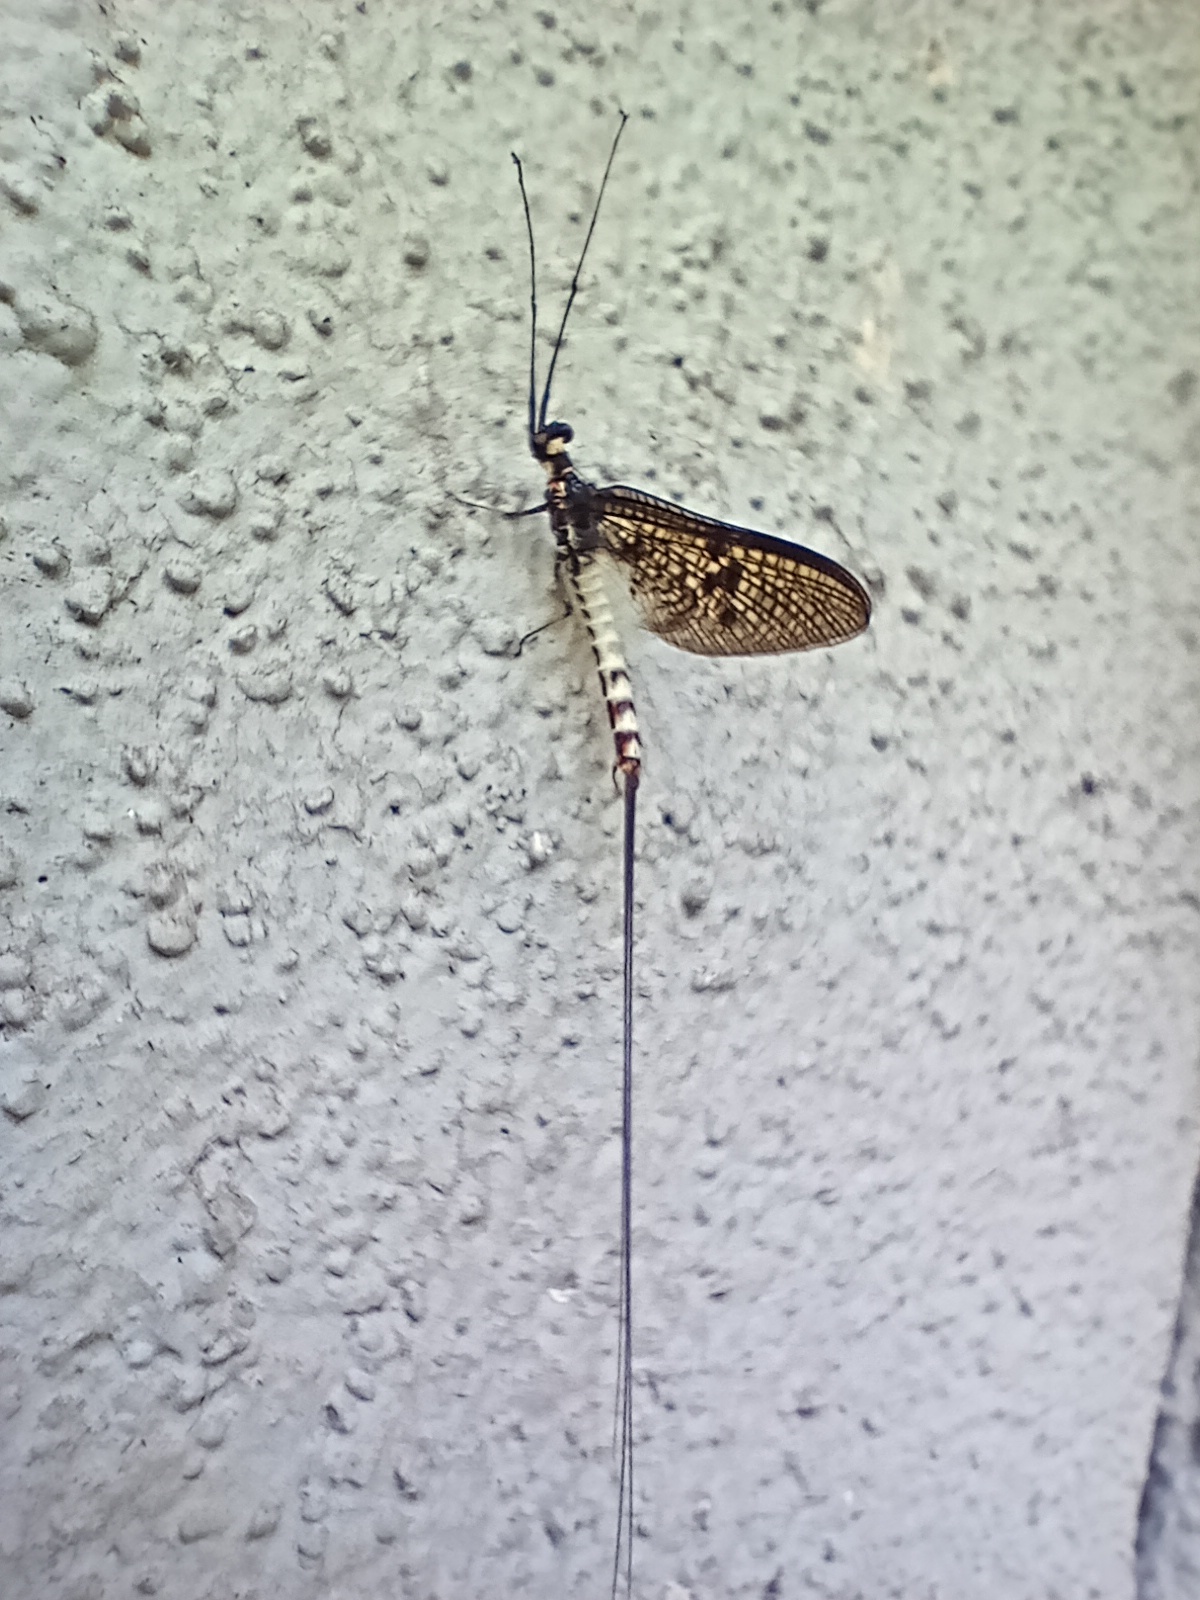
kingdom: Animalia
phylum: Arthropoda
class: Insecta
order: Ephemeroptera
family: Ephemeridae
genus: Ephemera
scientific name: Ephemera danica
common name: Green dun
